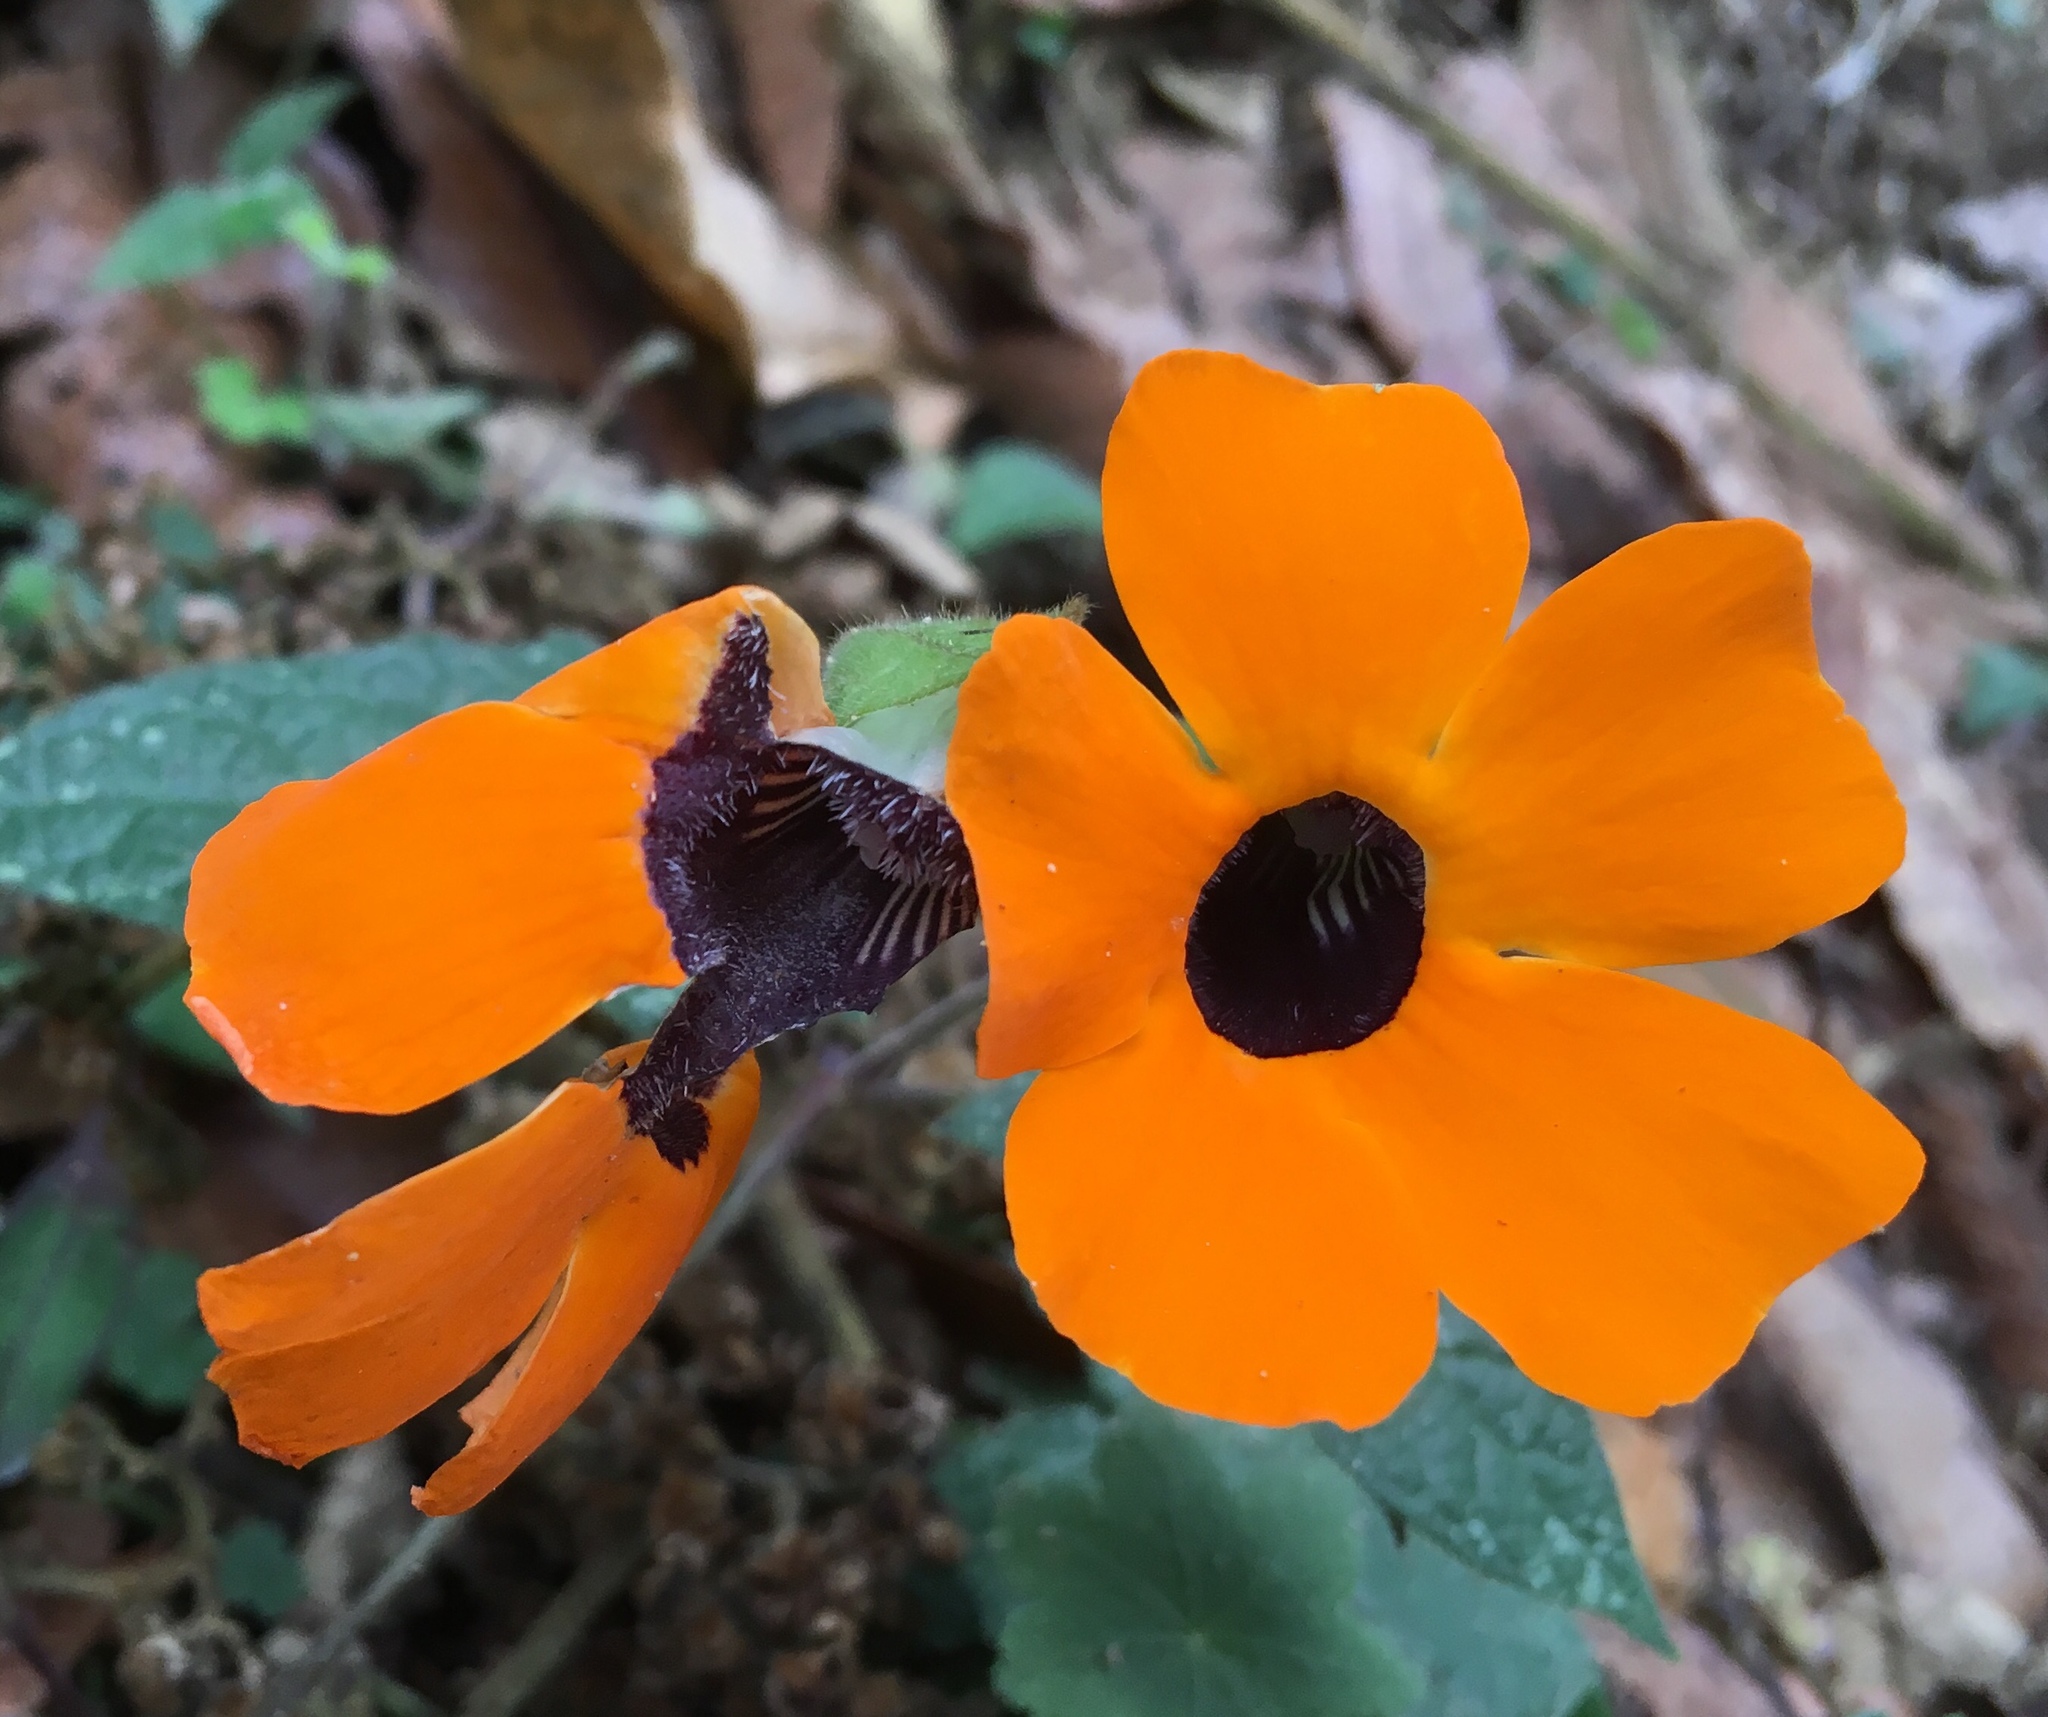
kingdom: Plantae
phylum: Tracheophyta
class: Magnoliopsida
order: Lamiales
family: Acanthaceae
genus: Thunbergia
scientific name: Thunbergia alata
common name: Blackeyed susan vine
